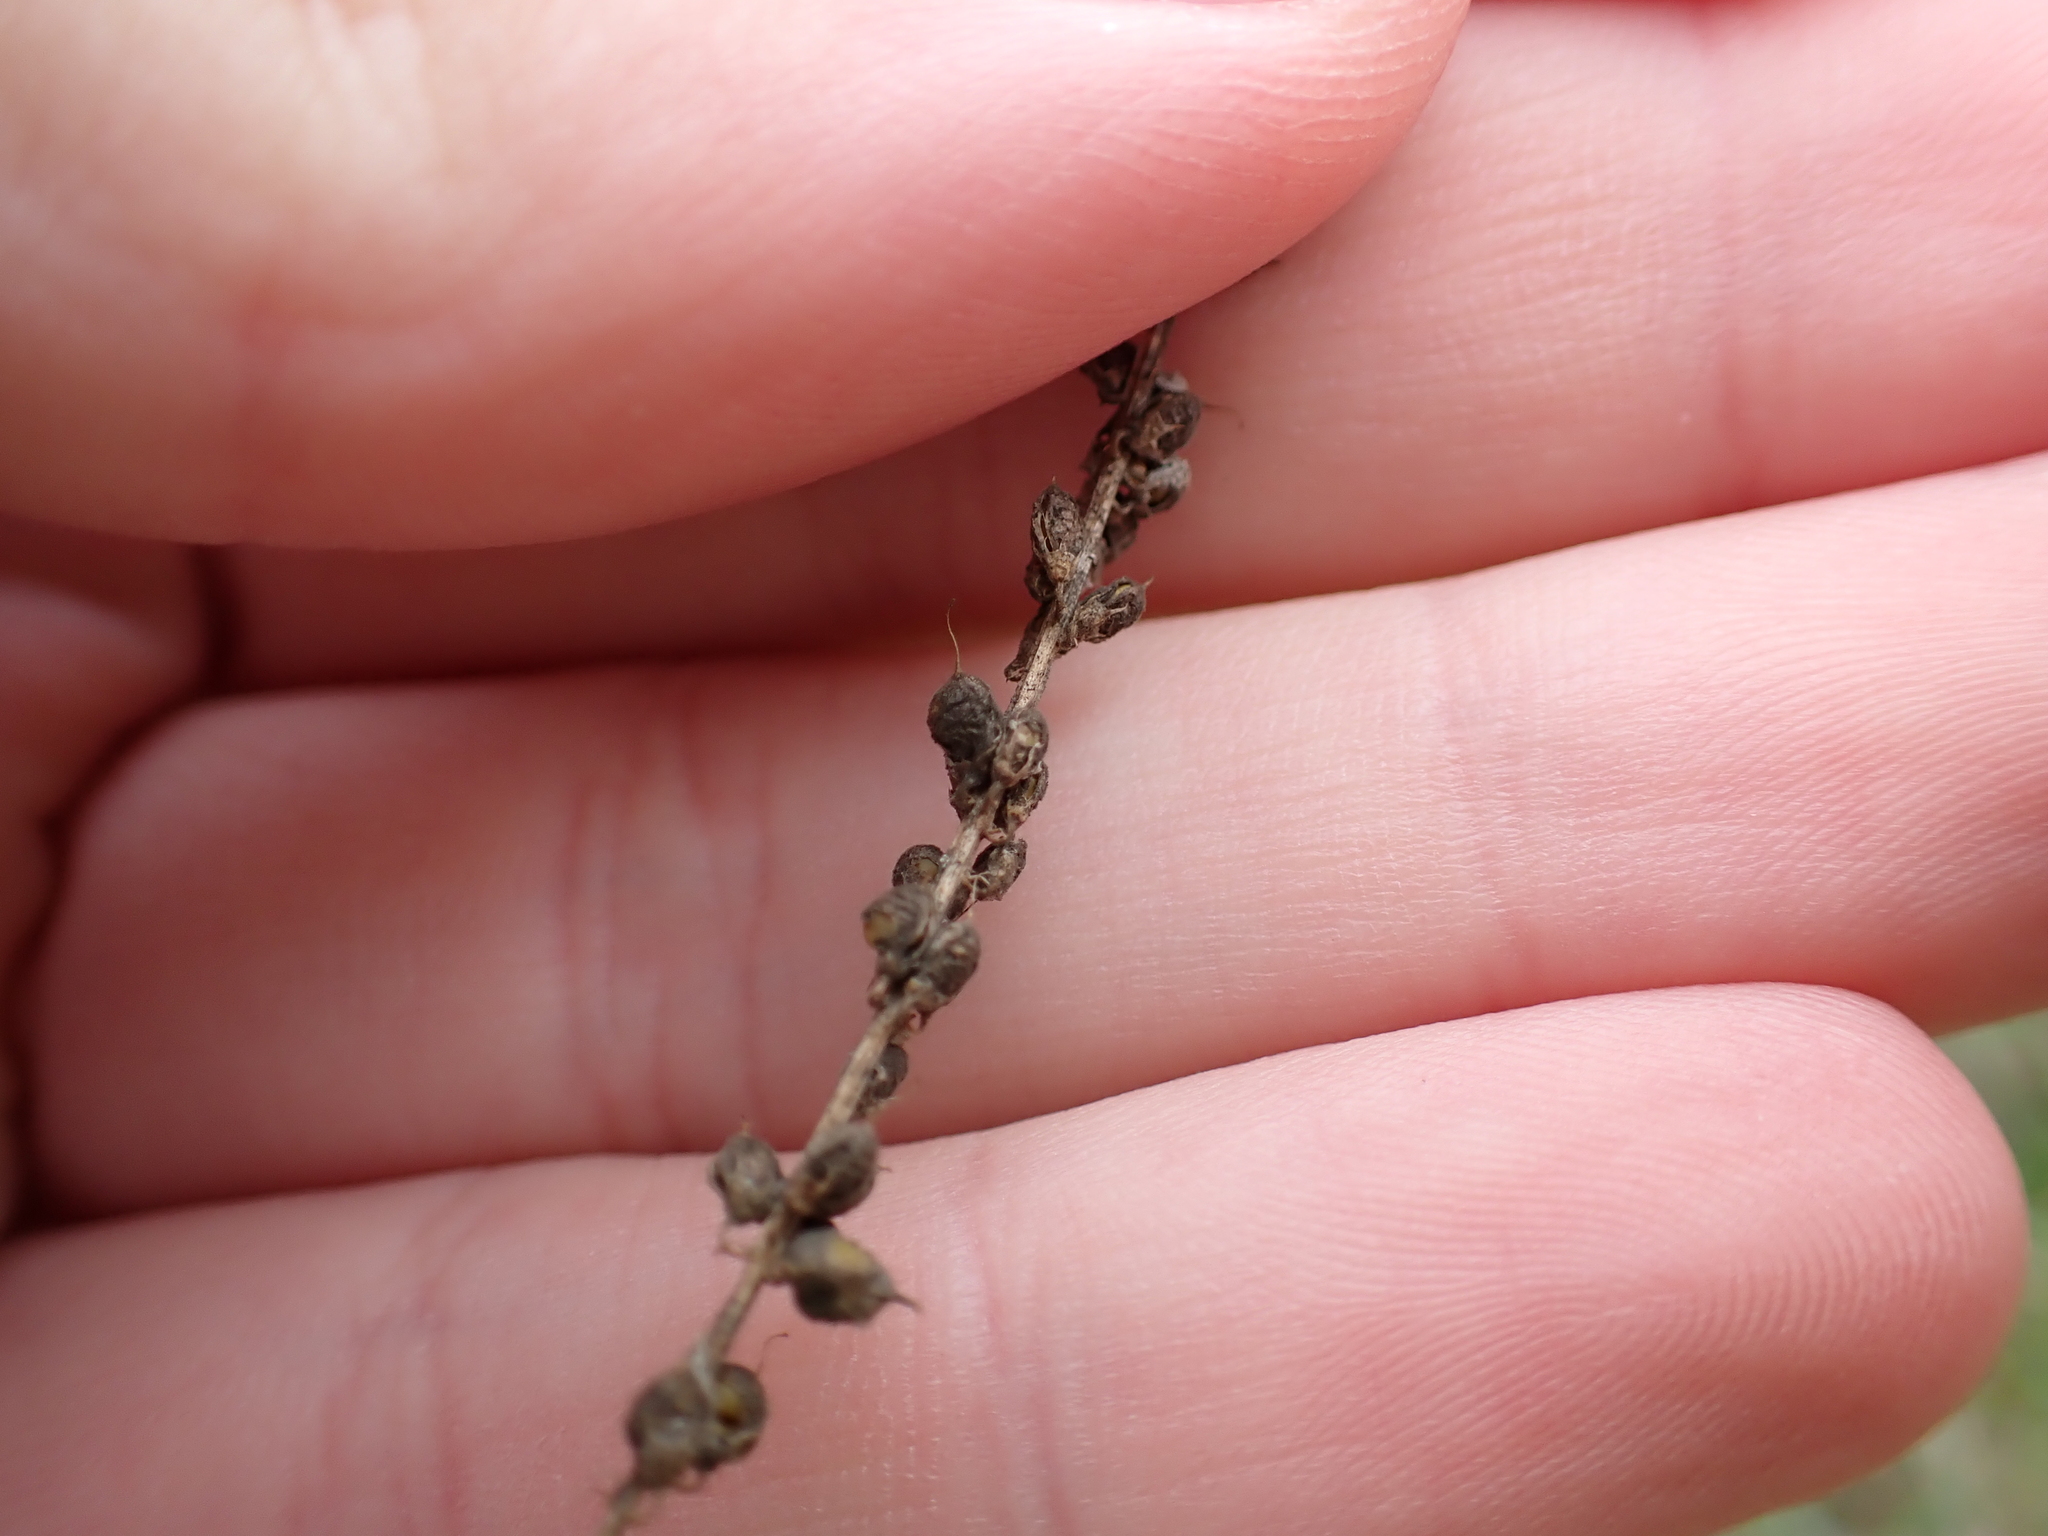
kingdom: Plantae
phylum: Tracheophyta
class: Magnoliopsida
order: Fabales
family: Fabaceae
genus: Melilotus
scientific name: Melilotus albus
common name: White melilot
